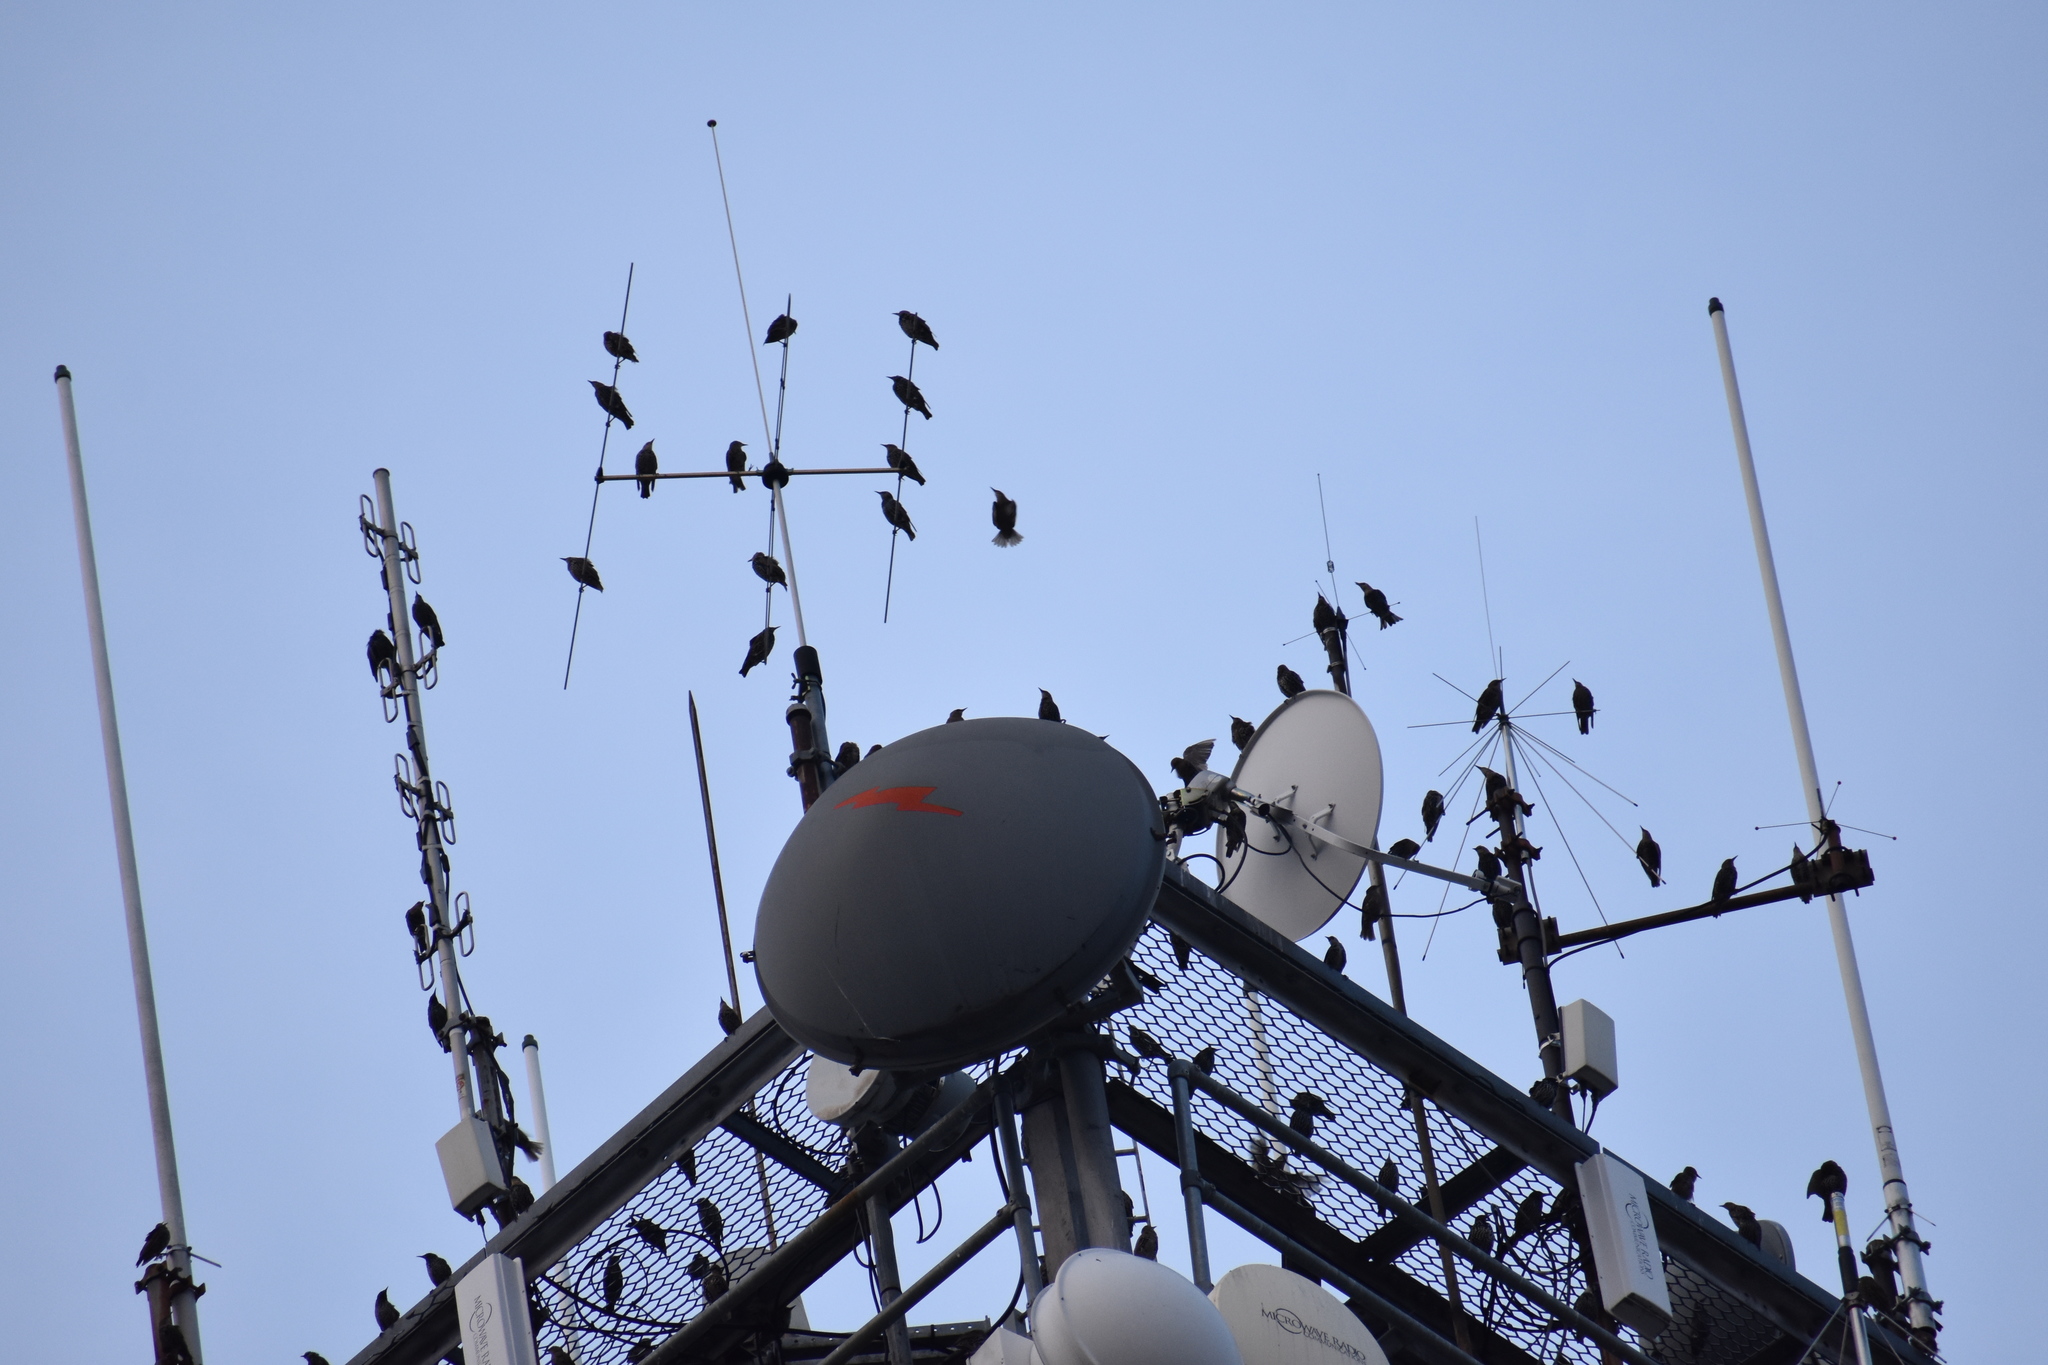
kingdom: Animalia
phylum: Chordata
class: Aves
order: Passeriformes
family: Sturnidae
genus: Sturnus
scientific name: Sturnus vulgaris
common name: Common starling
